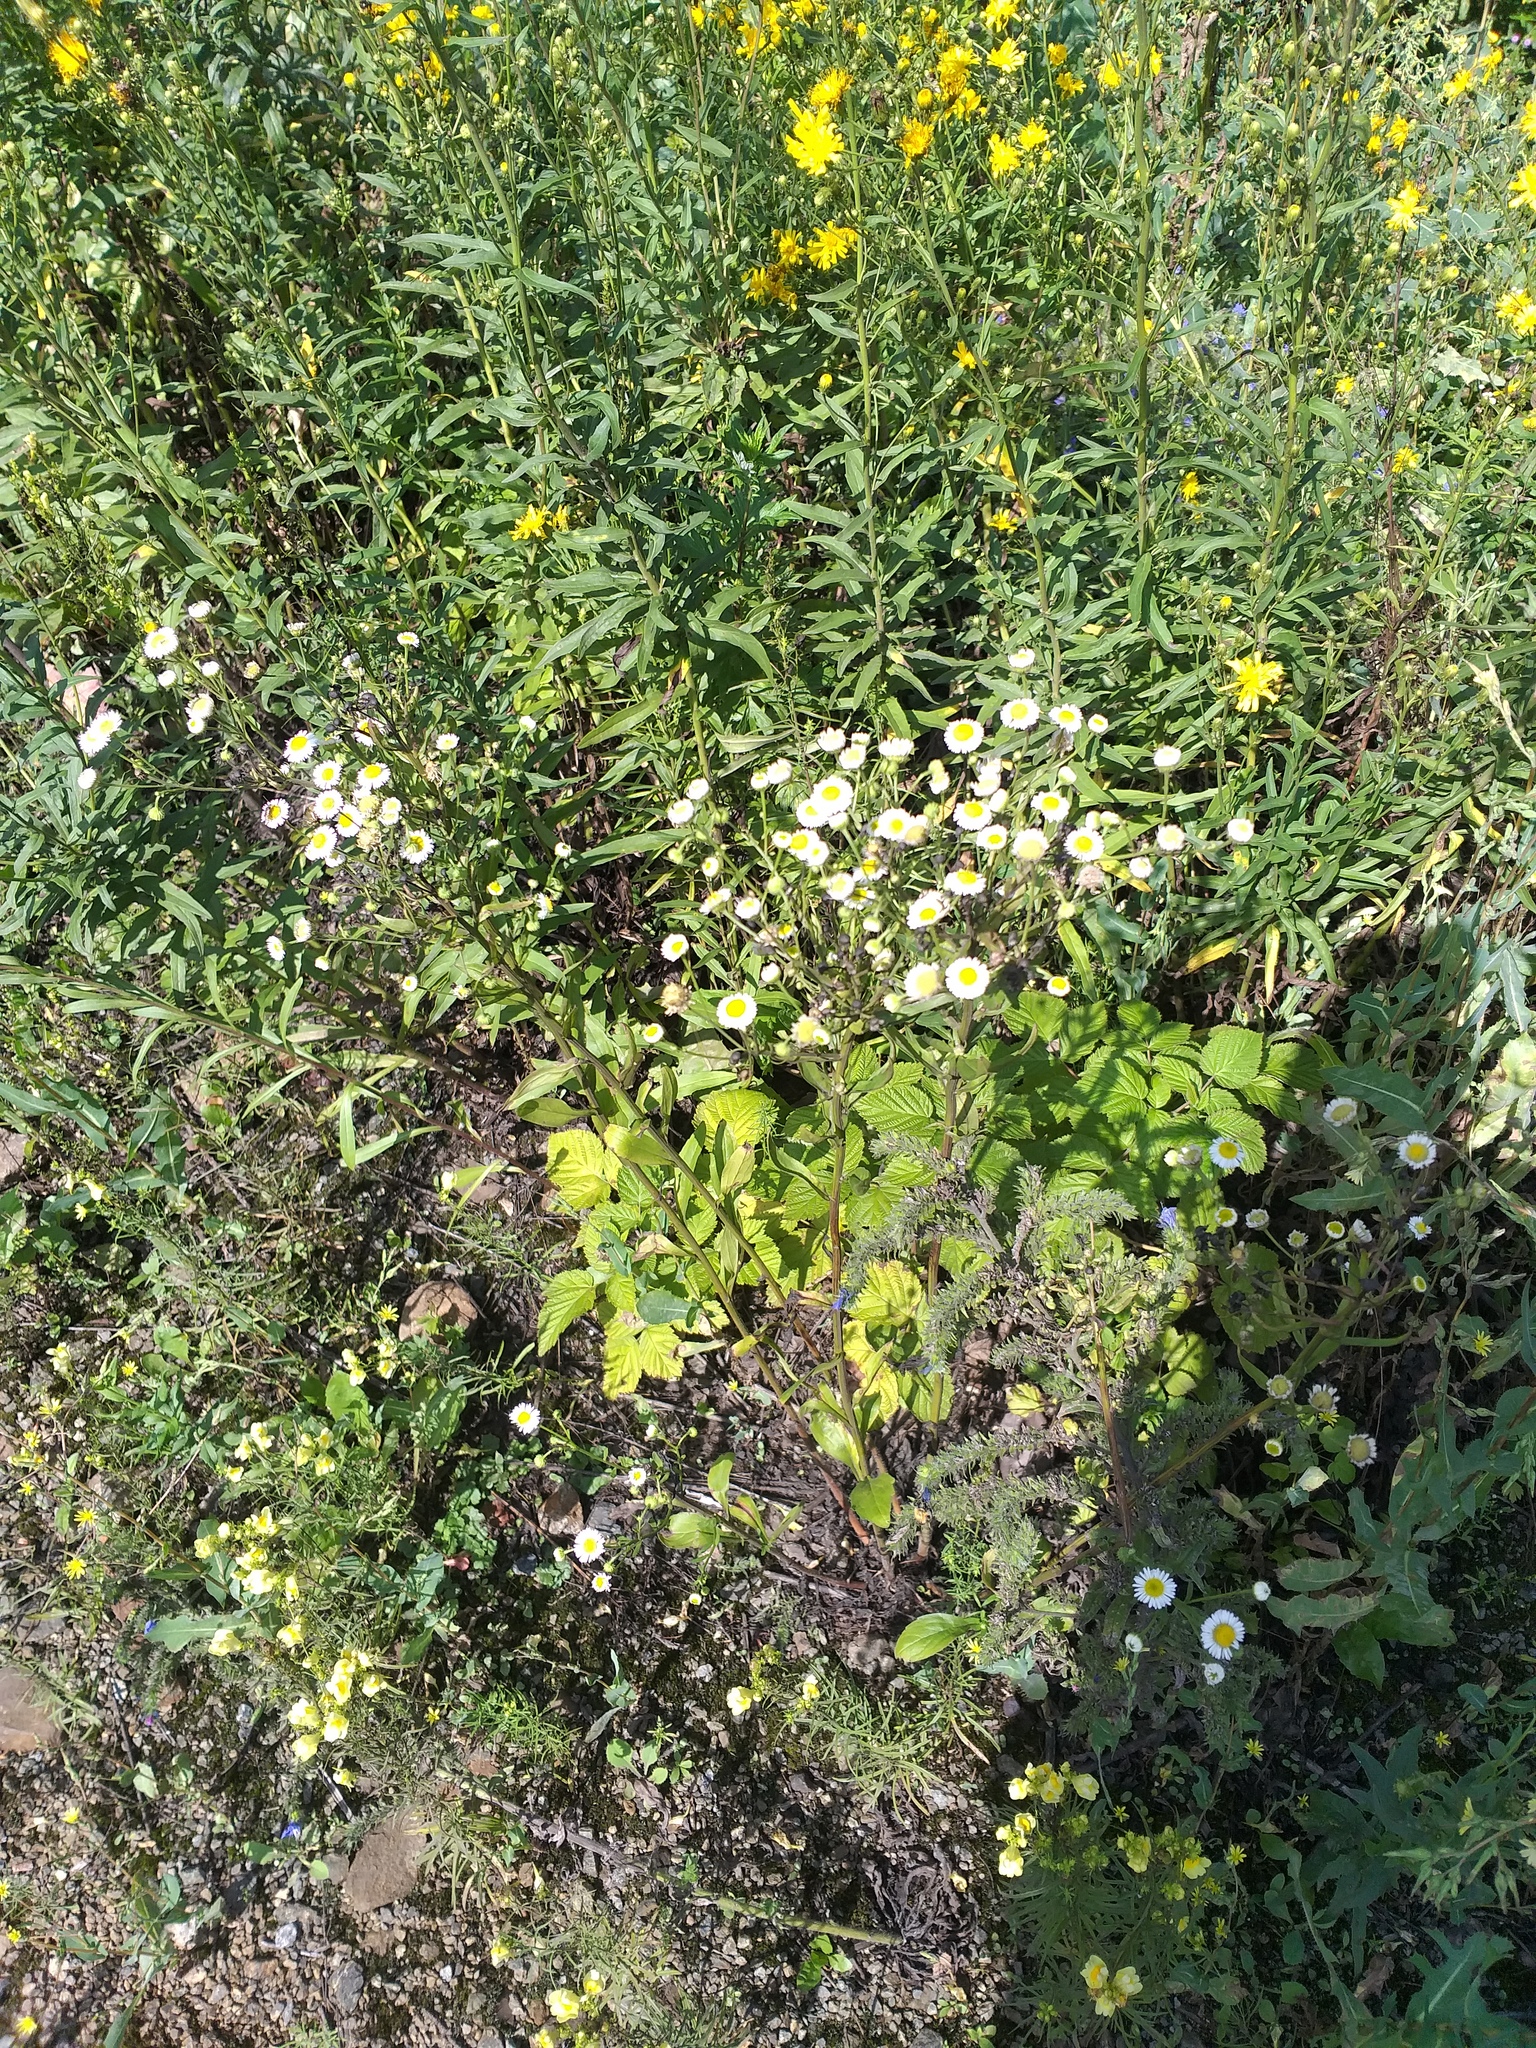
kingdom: Plantae
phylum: Tracheophyta
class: Magnoliopsida
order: Asterales
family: Asteraceae
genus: Erigeron
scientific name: Erigeron annuus
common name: Tall fleabane
